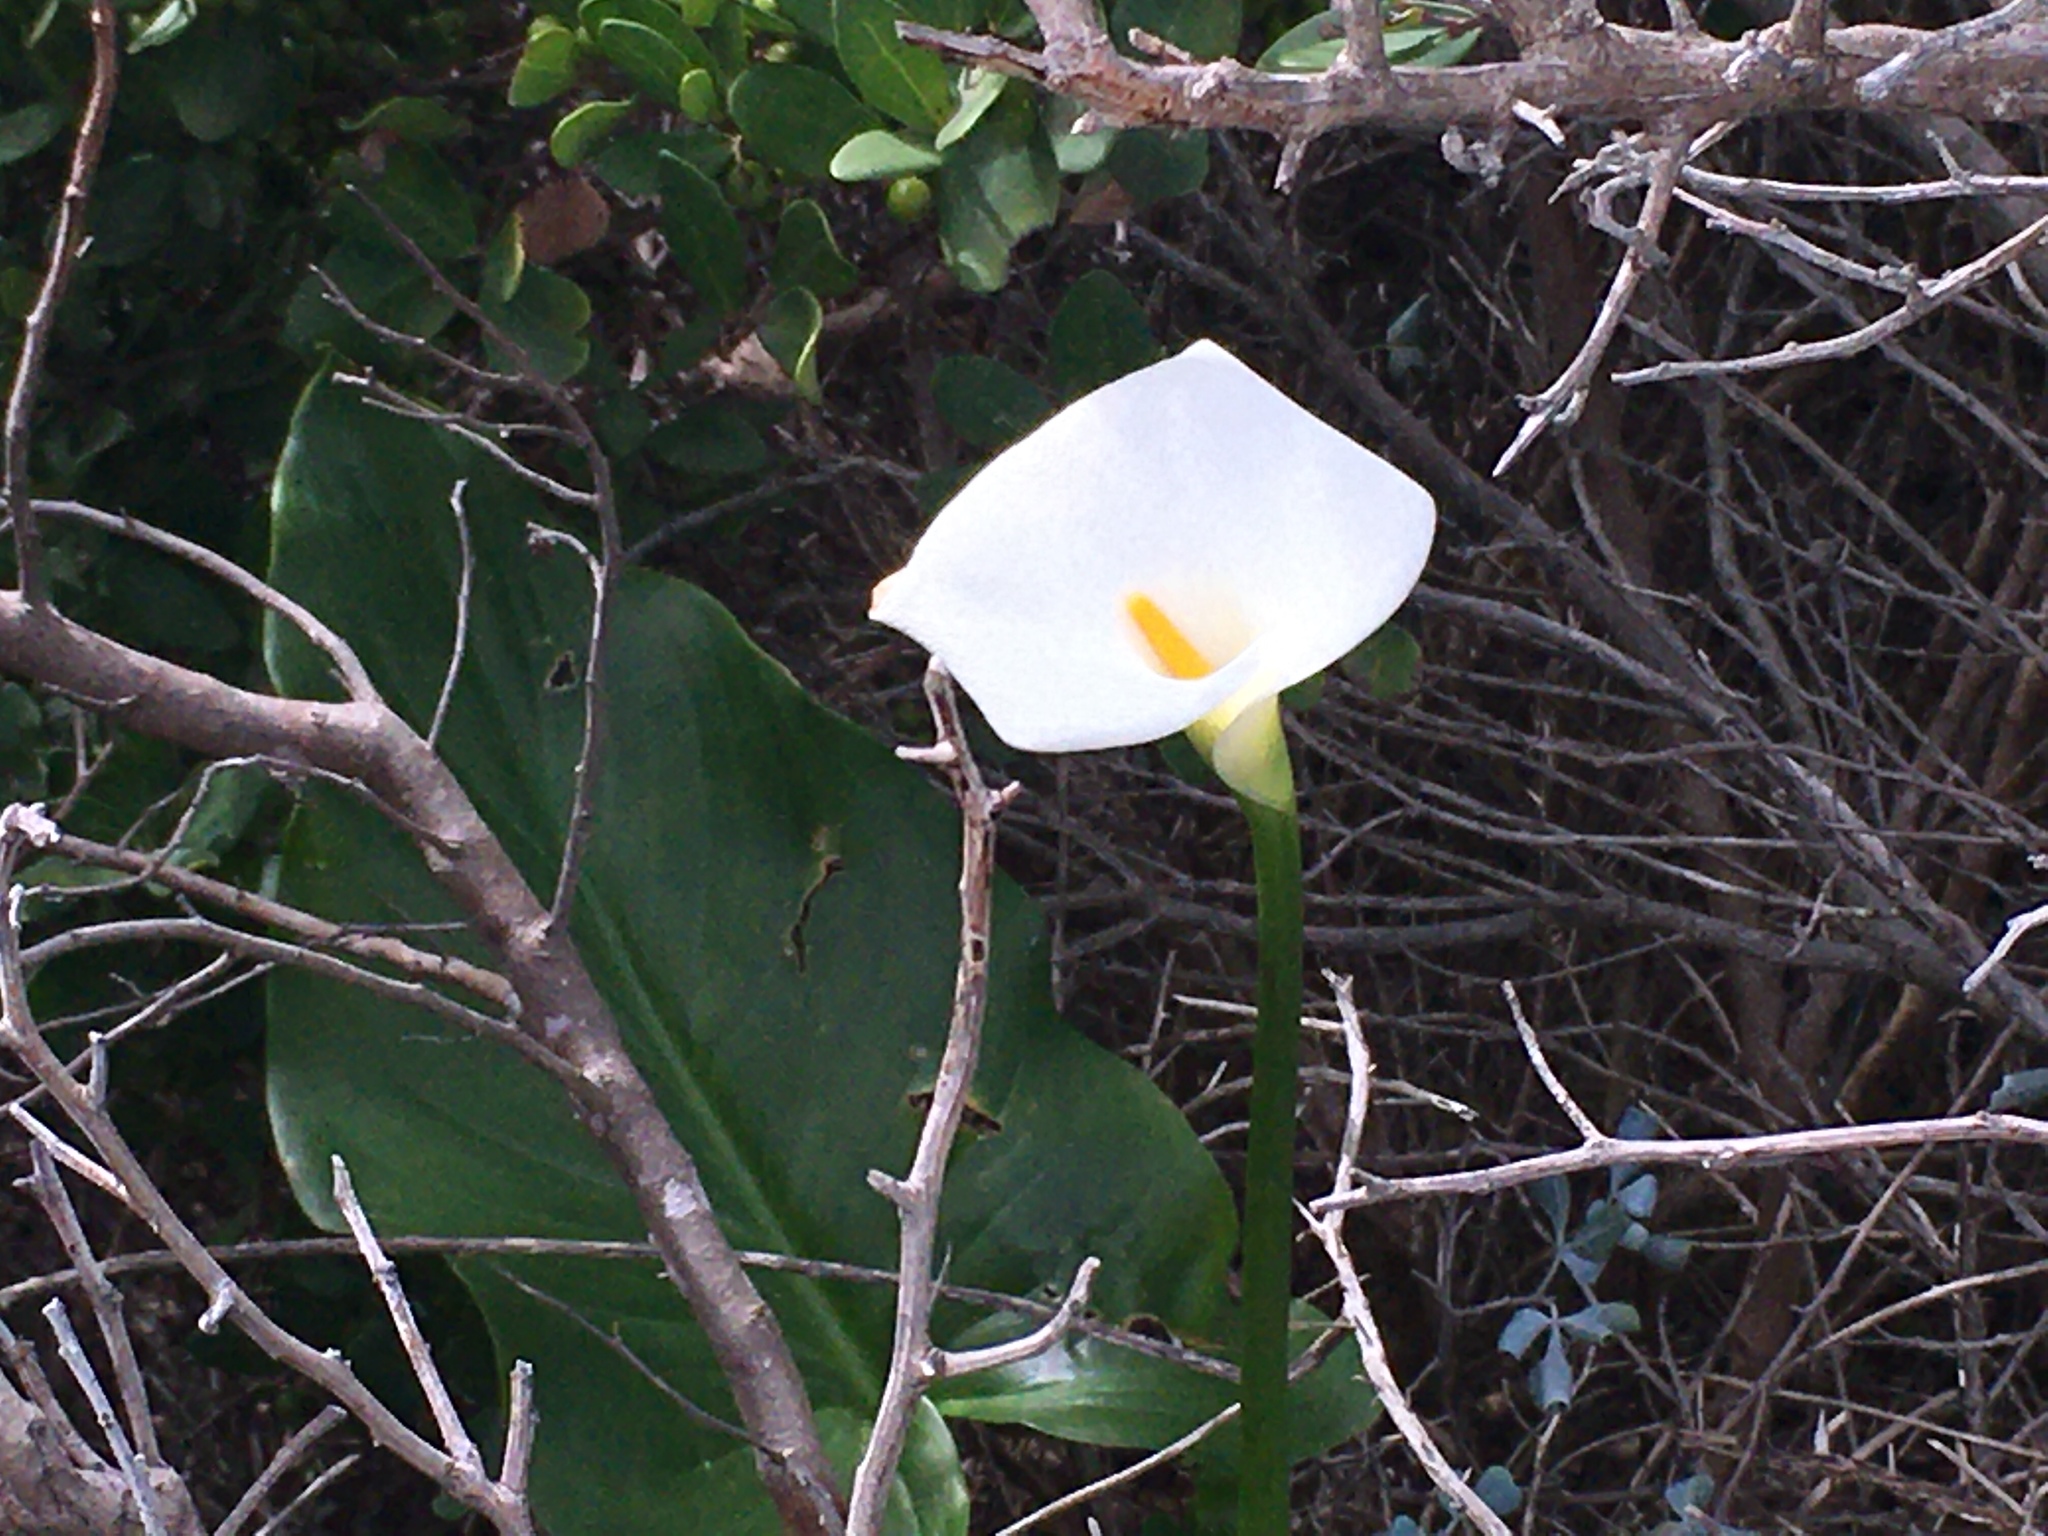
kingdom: Plantae
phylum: Tracheophyta
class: Liliopsida
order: Alismatales
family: Araceae
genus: Zantedeschia
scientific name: Zantedeschia aethiopica
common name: Altar-lily
